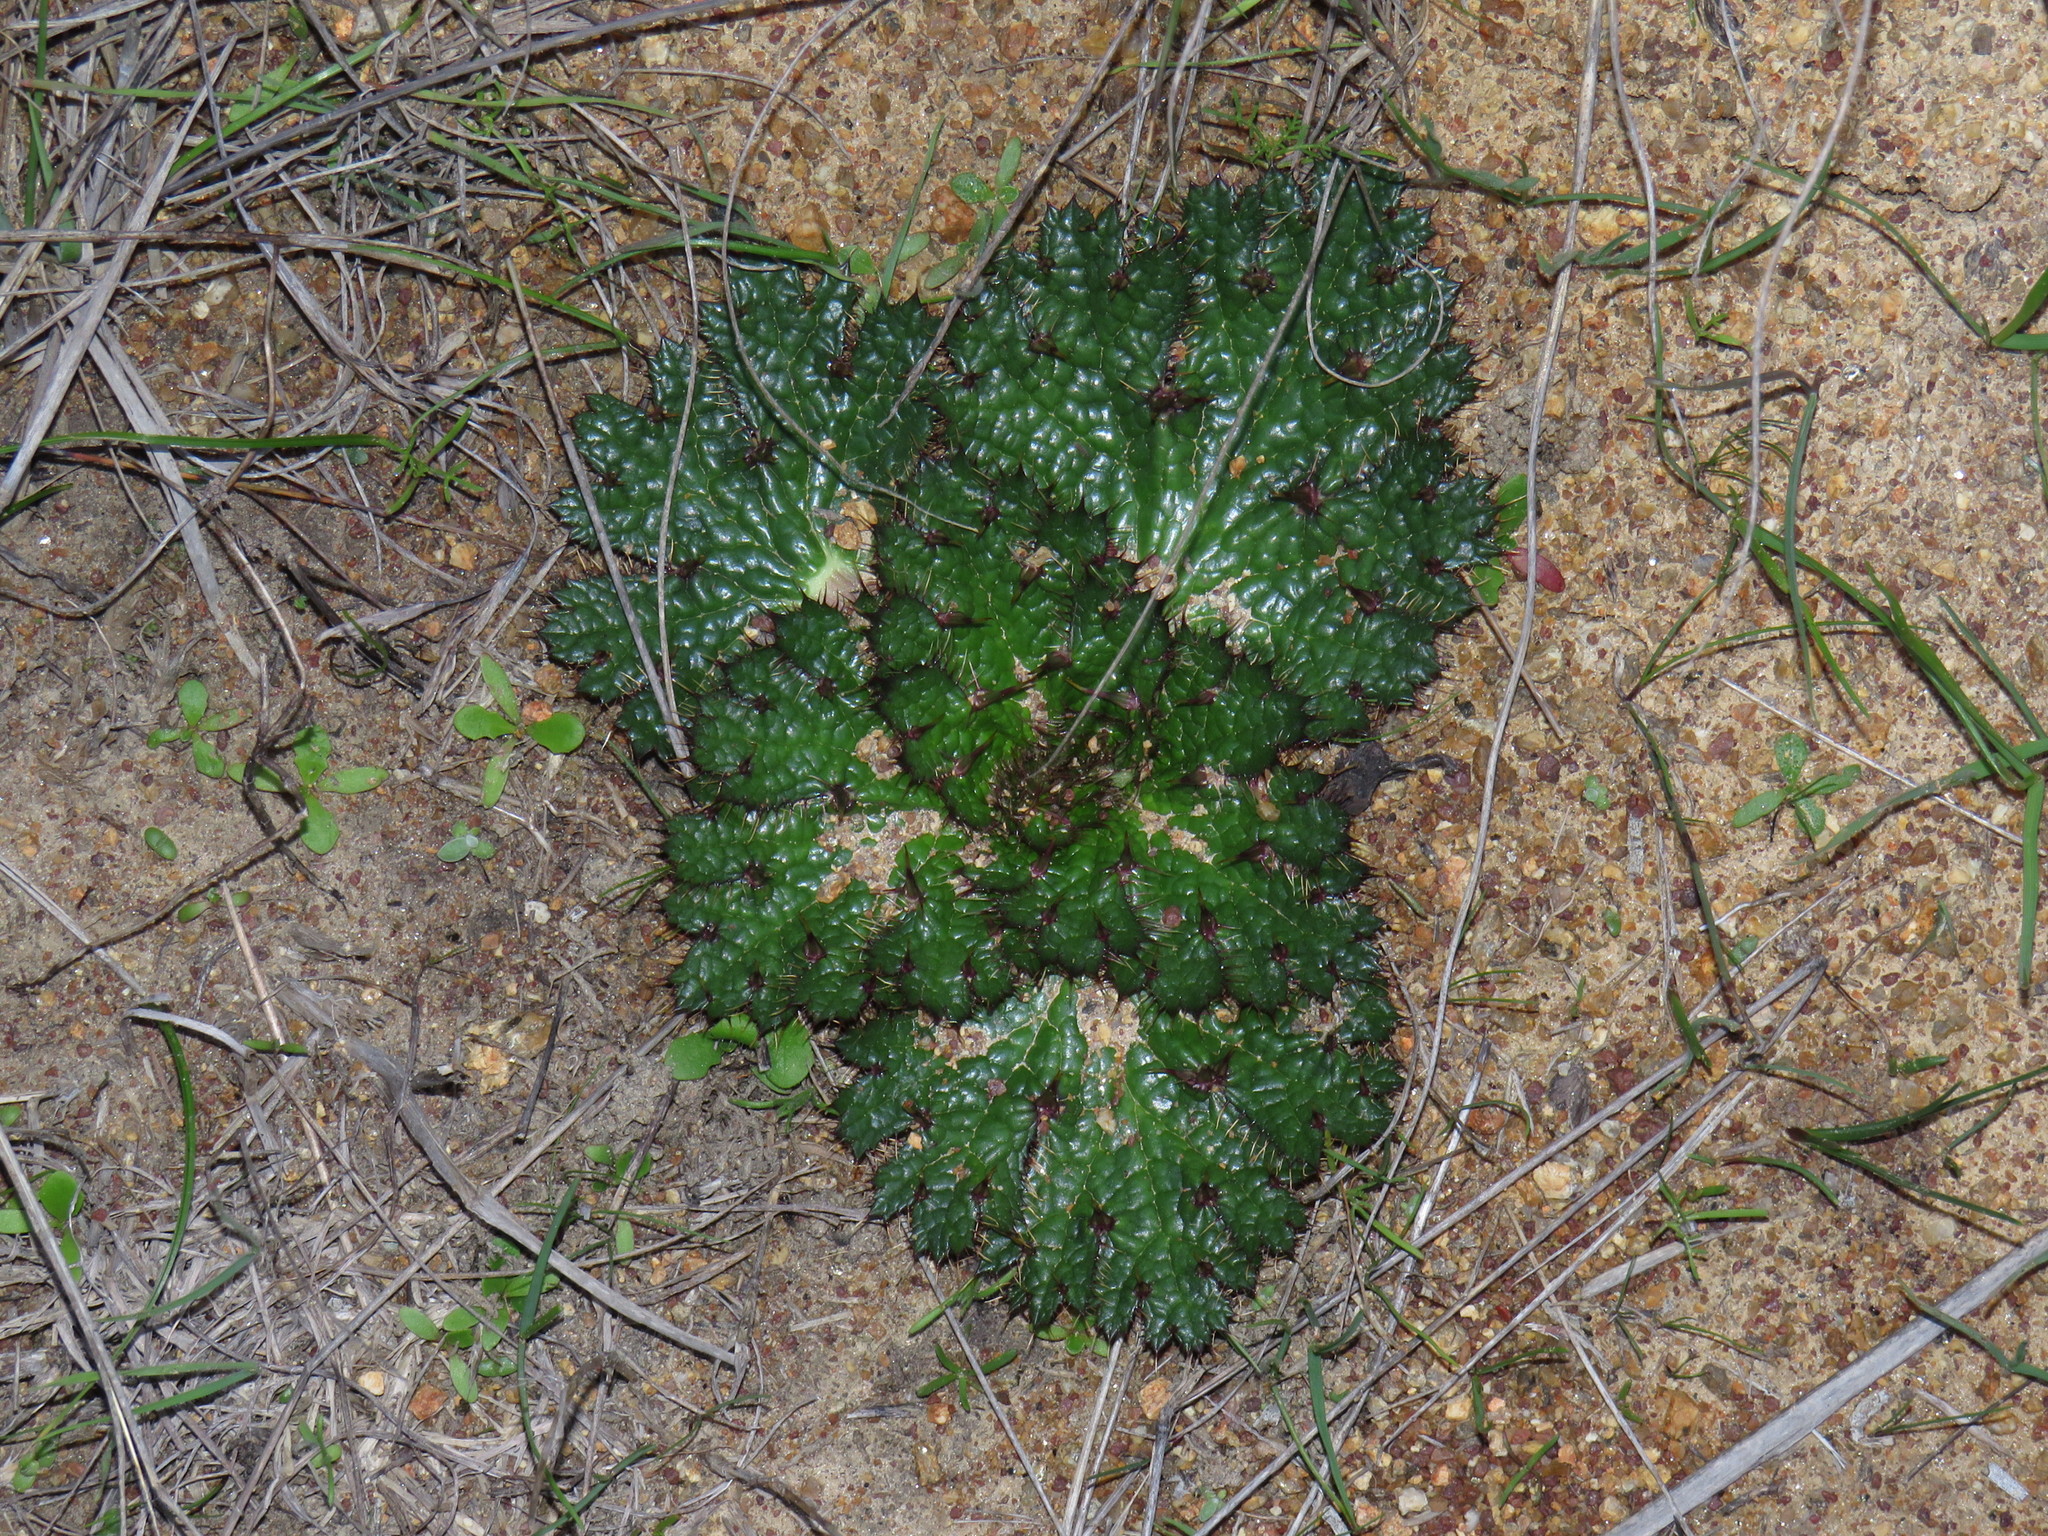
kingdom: Plantae
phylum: Tracheophyta
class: Magnoliopsida
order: Apiales
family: Apiaceae
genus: Arctopus
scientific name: Arctopus echinatus
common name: Platdoring
